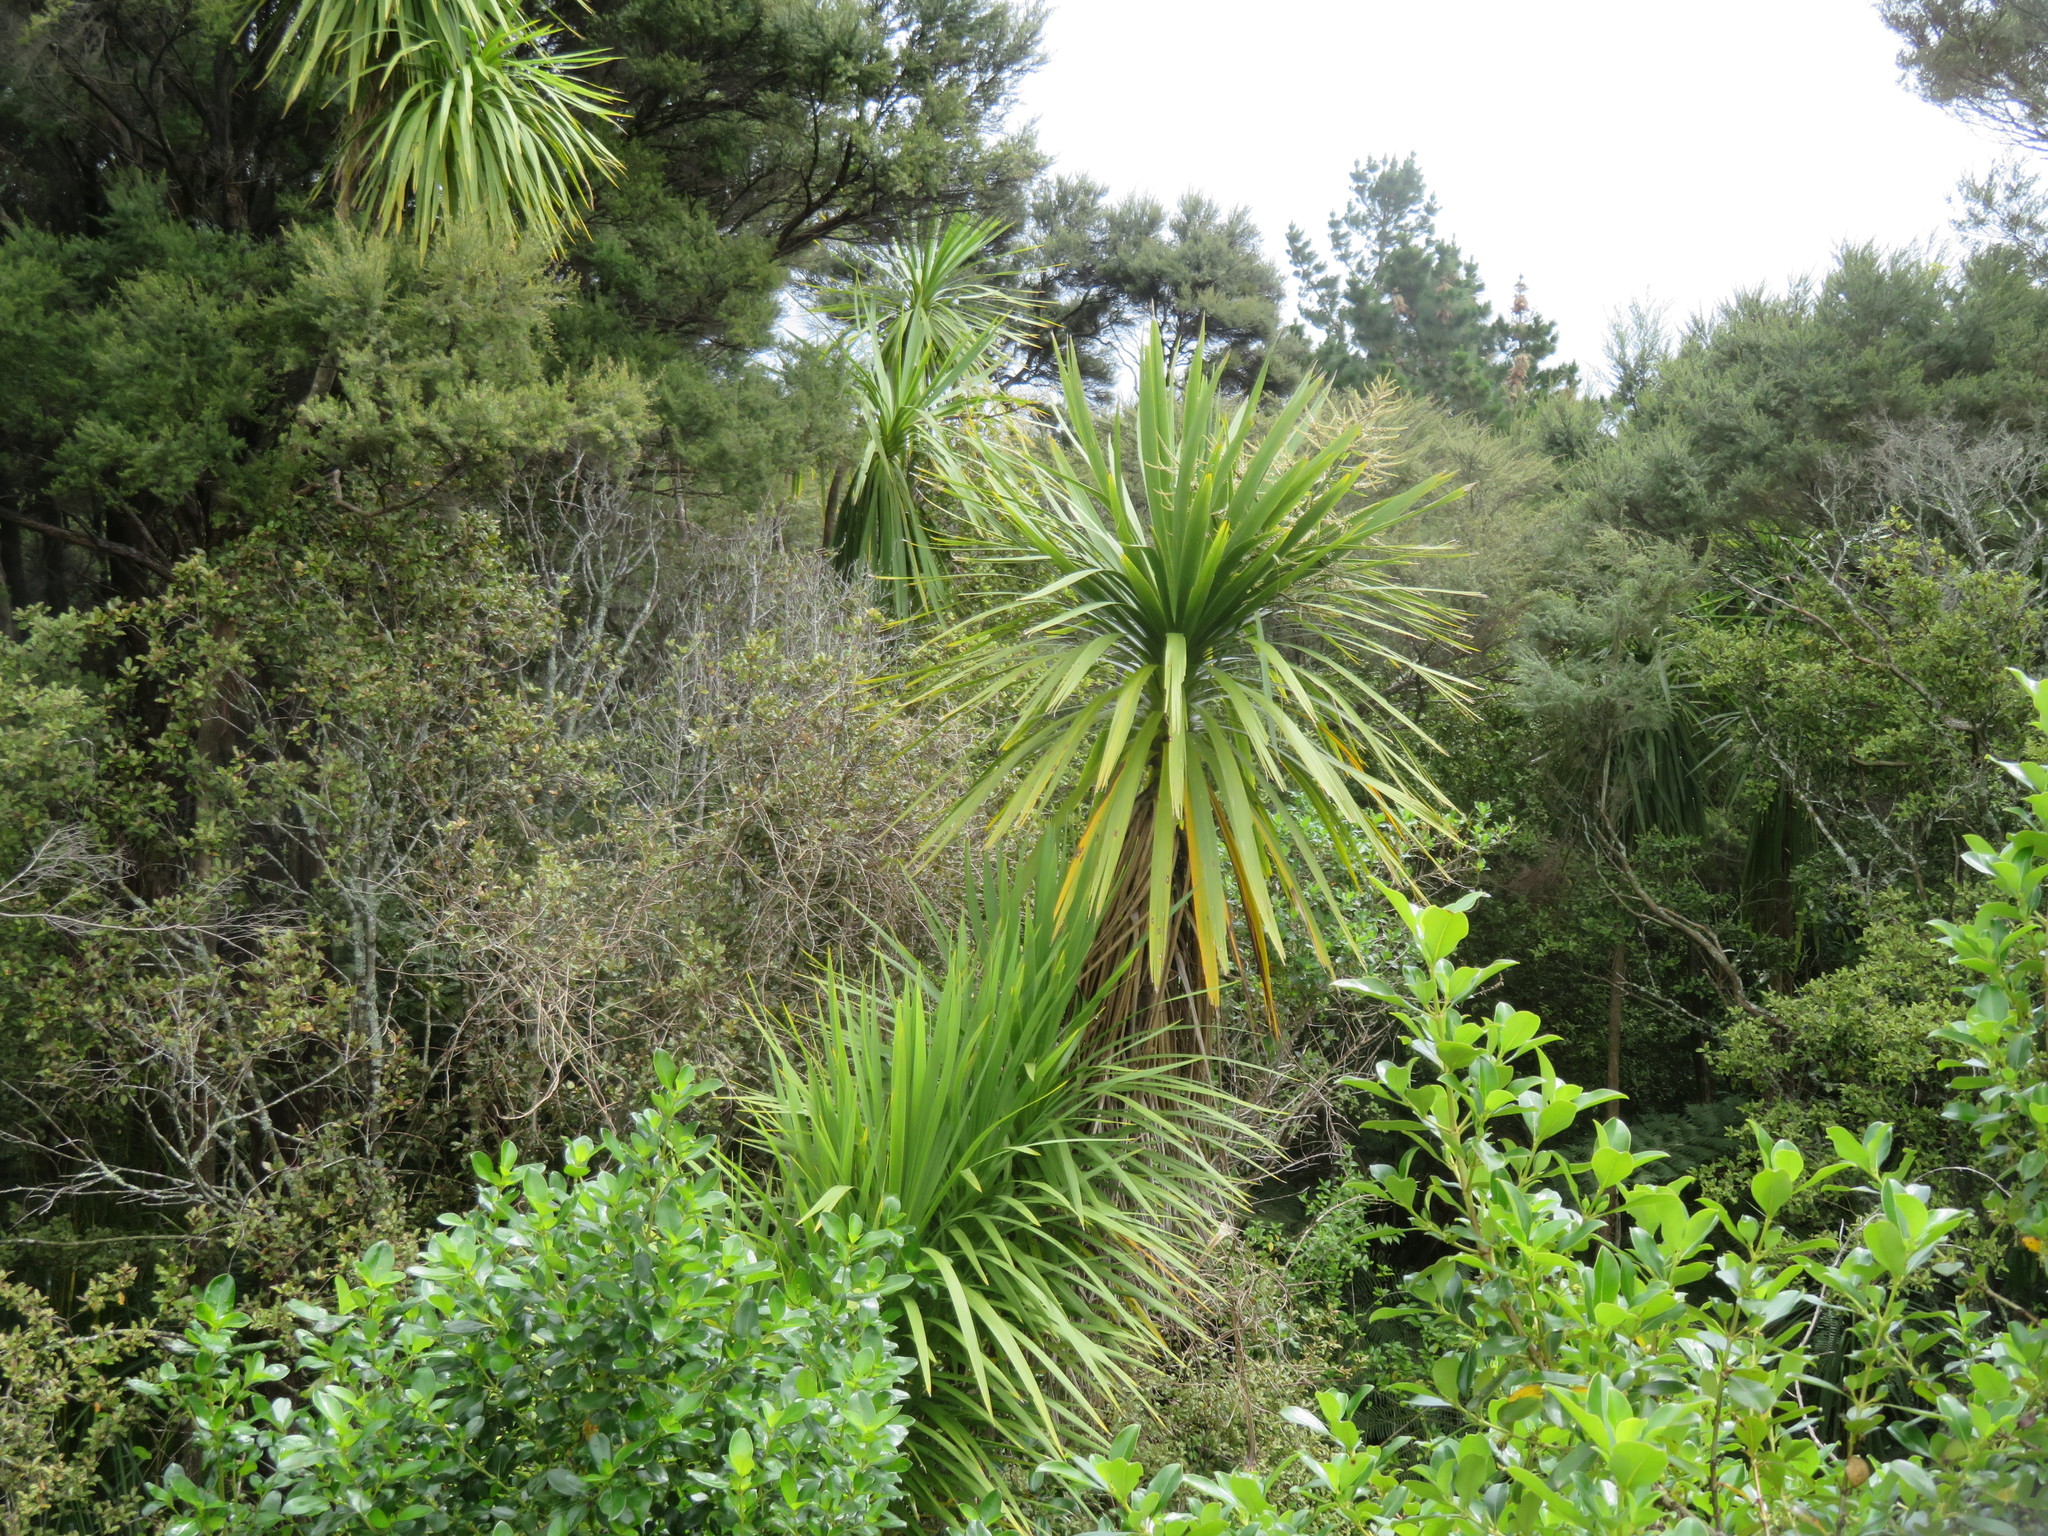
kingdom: Plantae
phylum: Tracheophyta
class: Liliopsida
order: Asparagales
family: Asparagaceae
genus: Cordyline
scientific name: Cordyline australis
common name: Cabbage-palm
